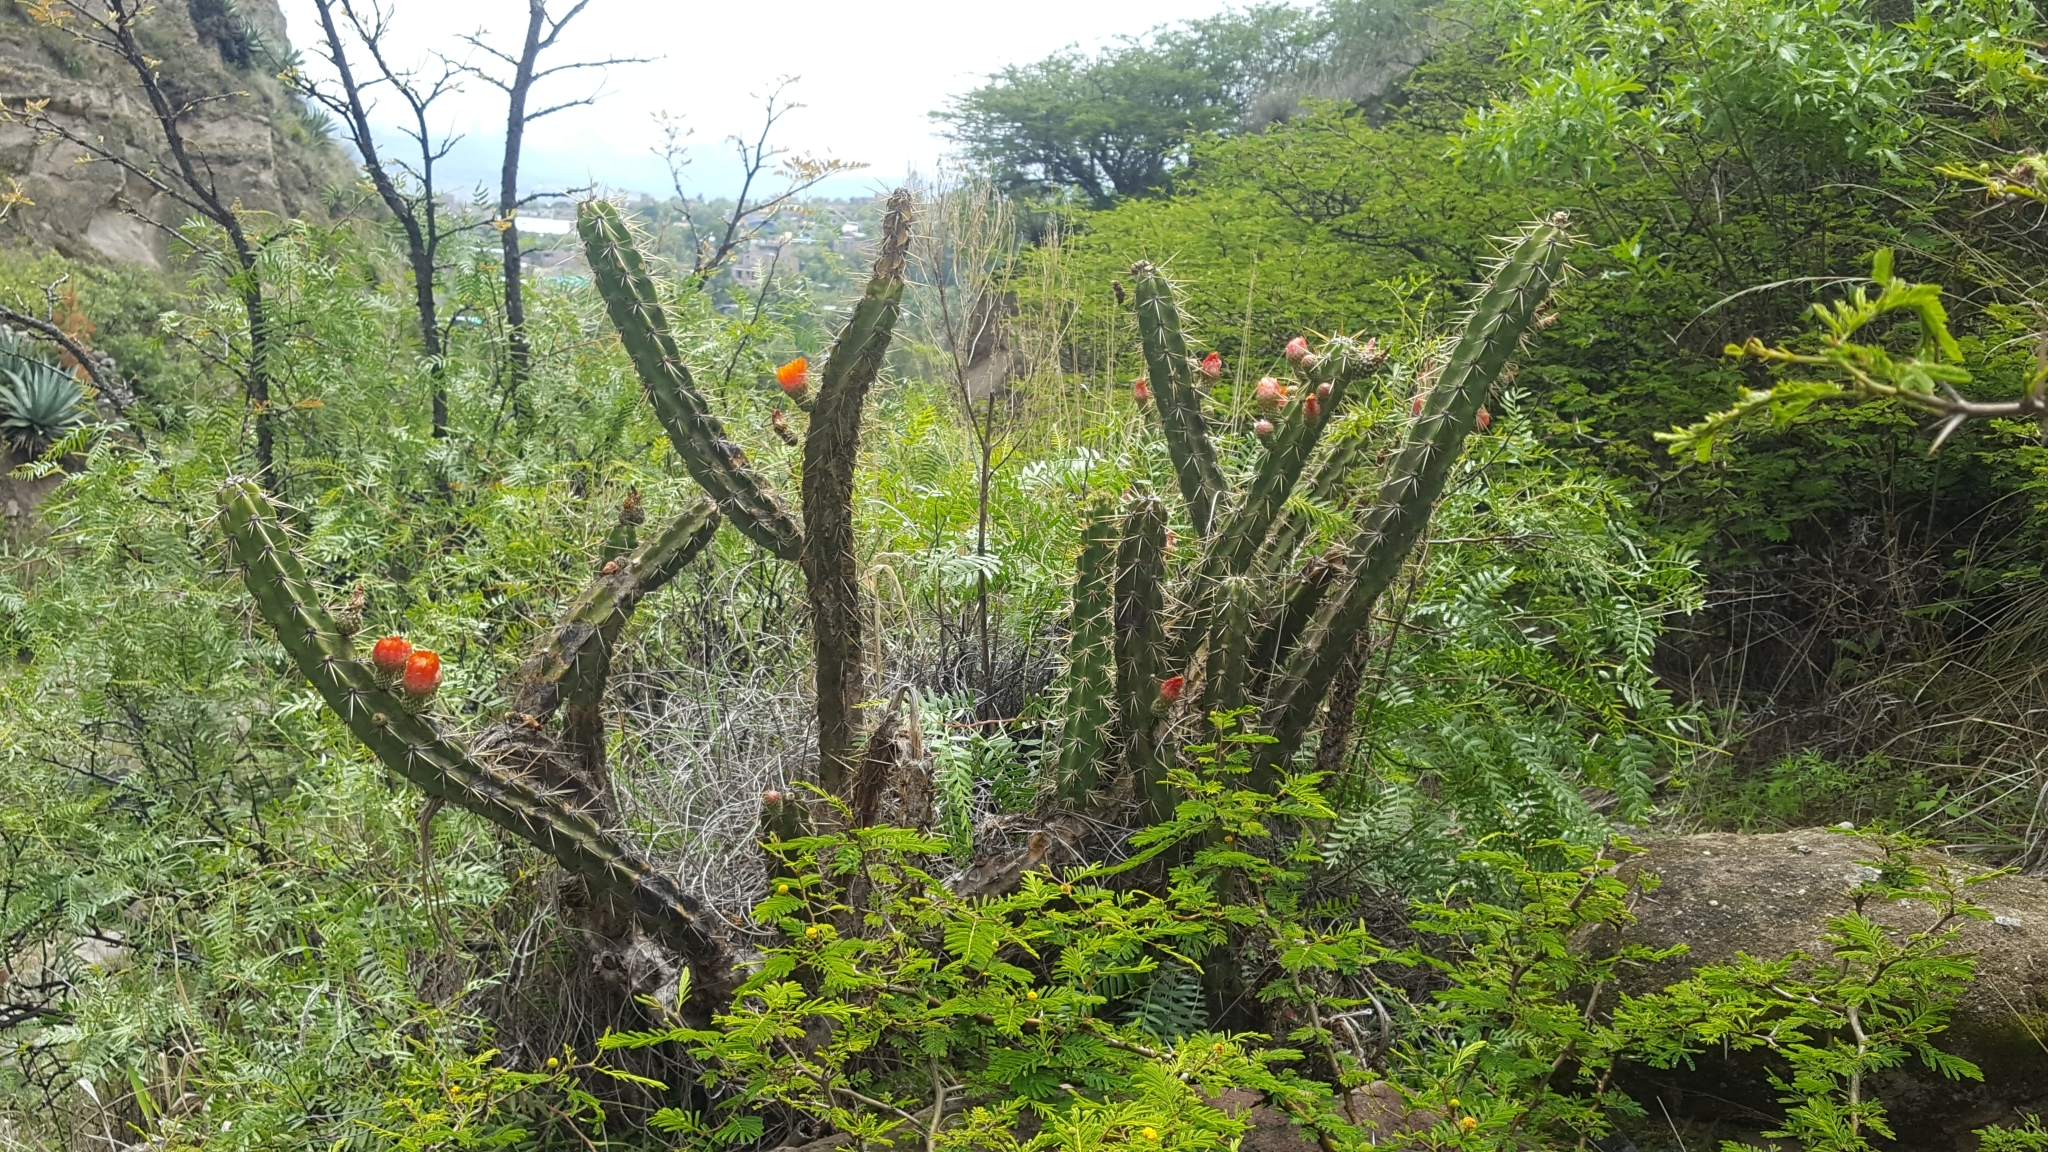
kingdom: Plantae
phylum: Tracheophyta
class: Magnoliopsida
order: Caryophyllales
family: Cactaceae
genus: Corryocactus
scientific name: Corryocactus ayacuchoensis
